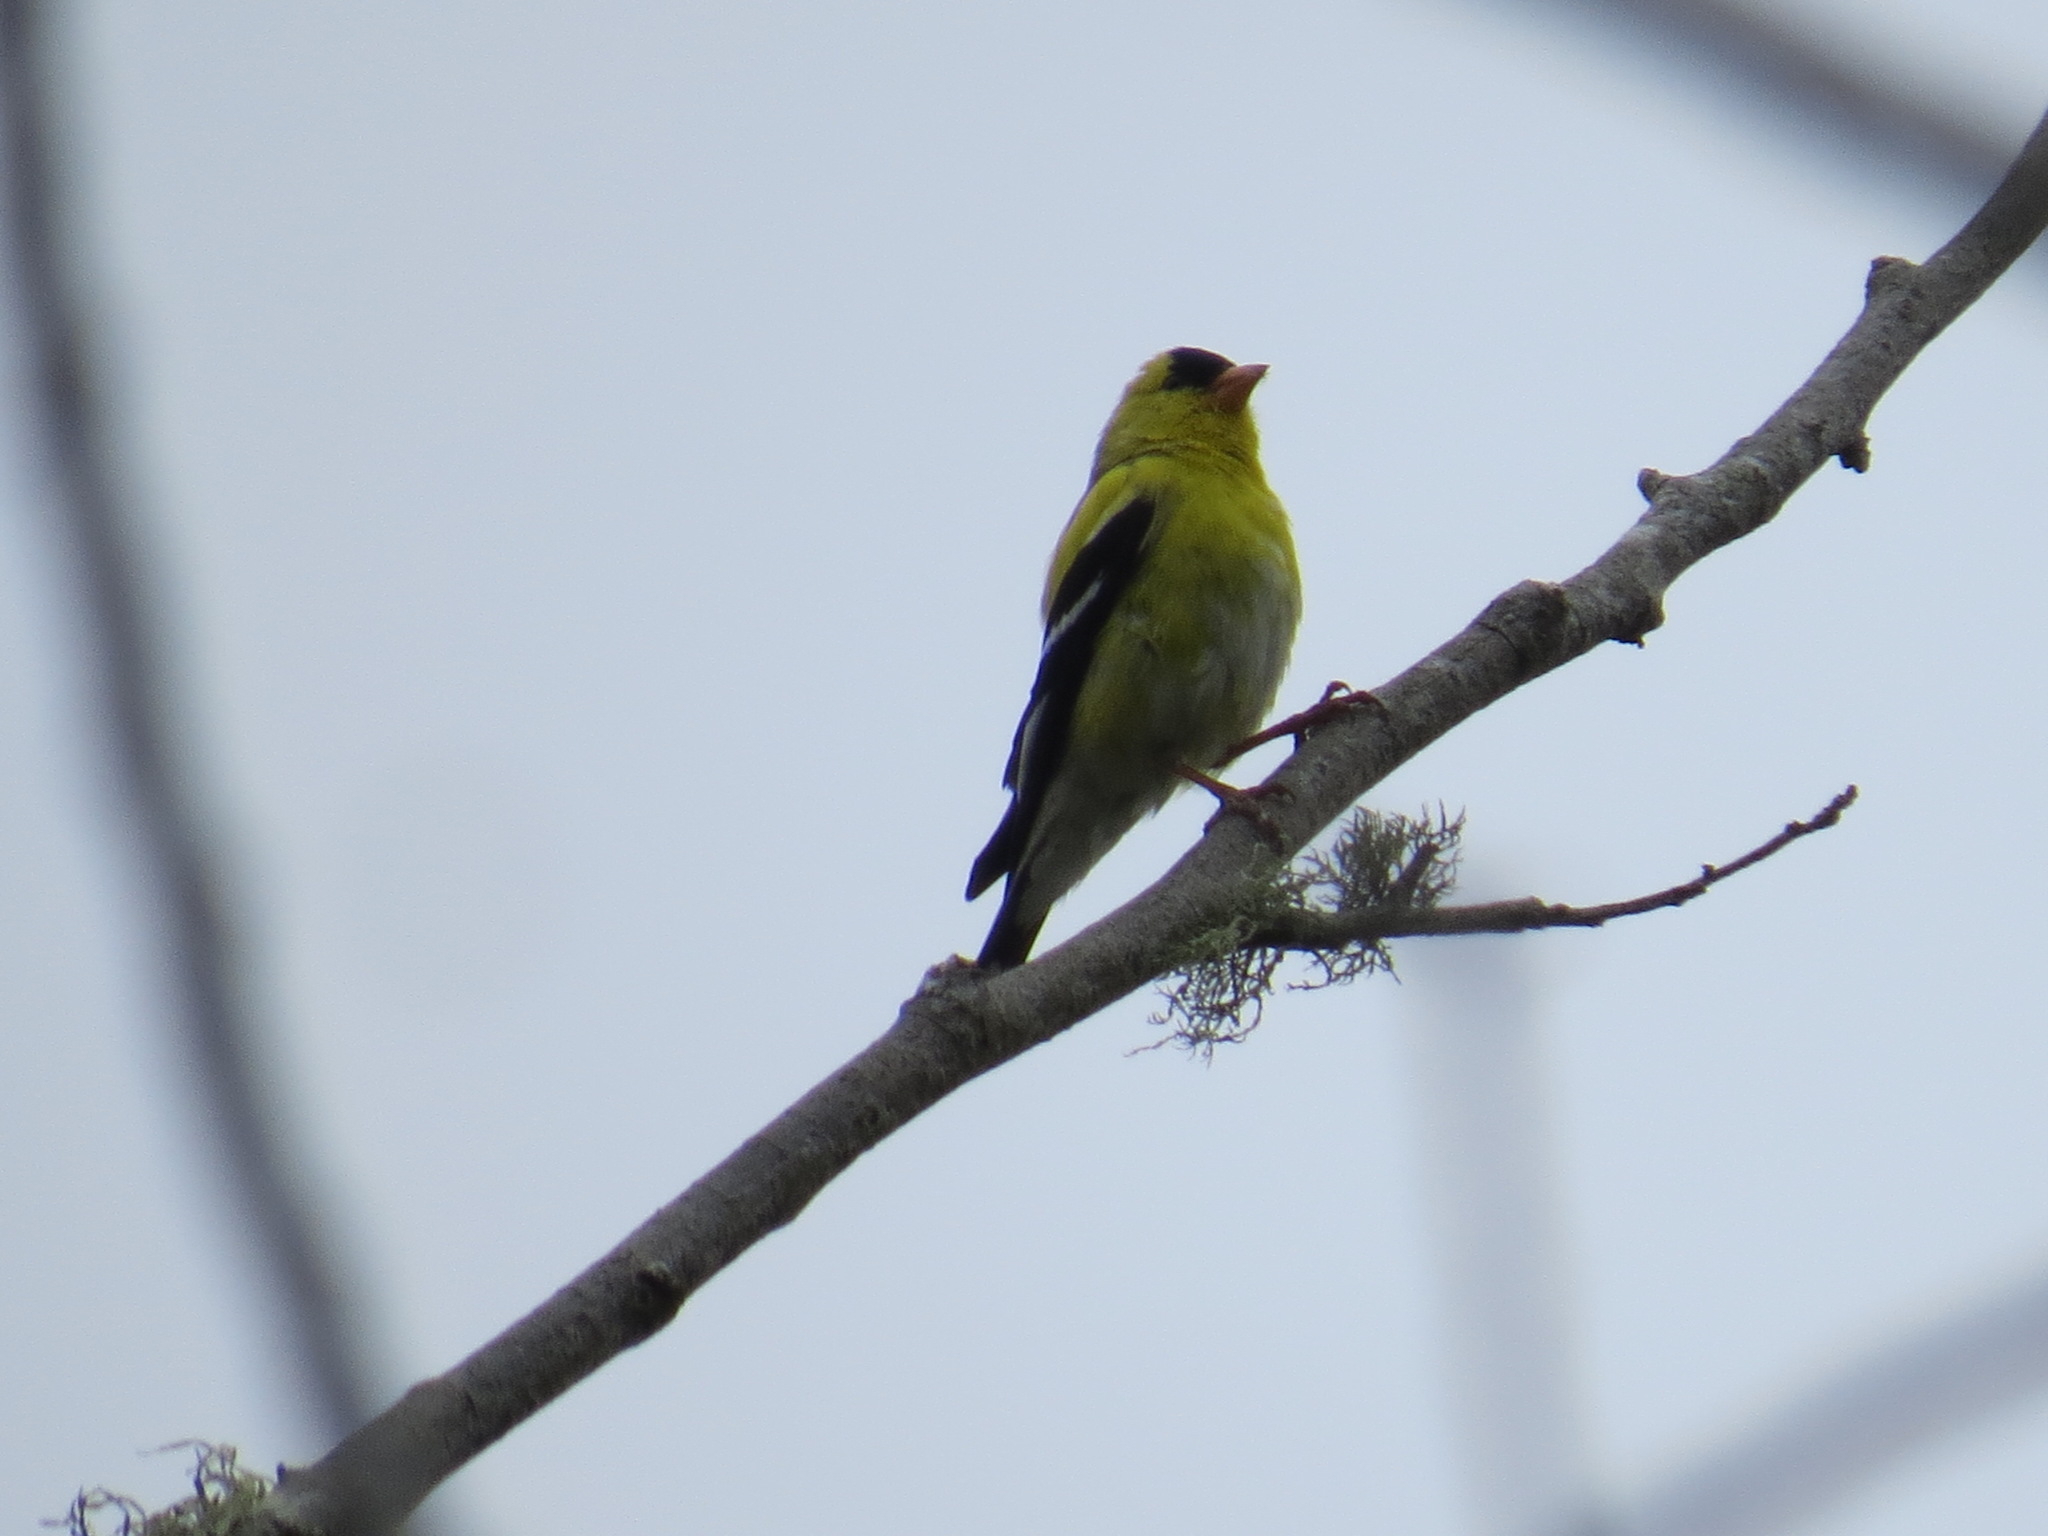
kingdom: Animalia
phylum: Chordata
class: Aves
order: Passeriformes
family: Fringillidae
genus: Spinus
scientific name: Spinus tristis
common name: American goldfinch
